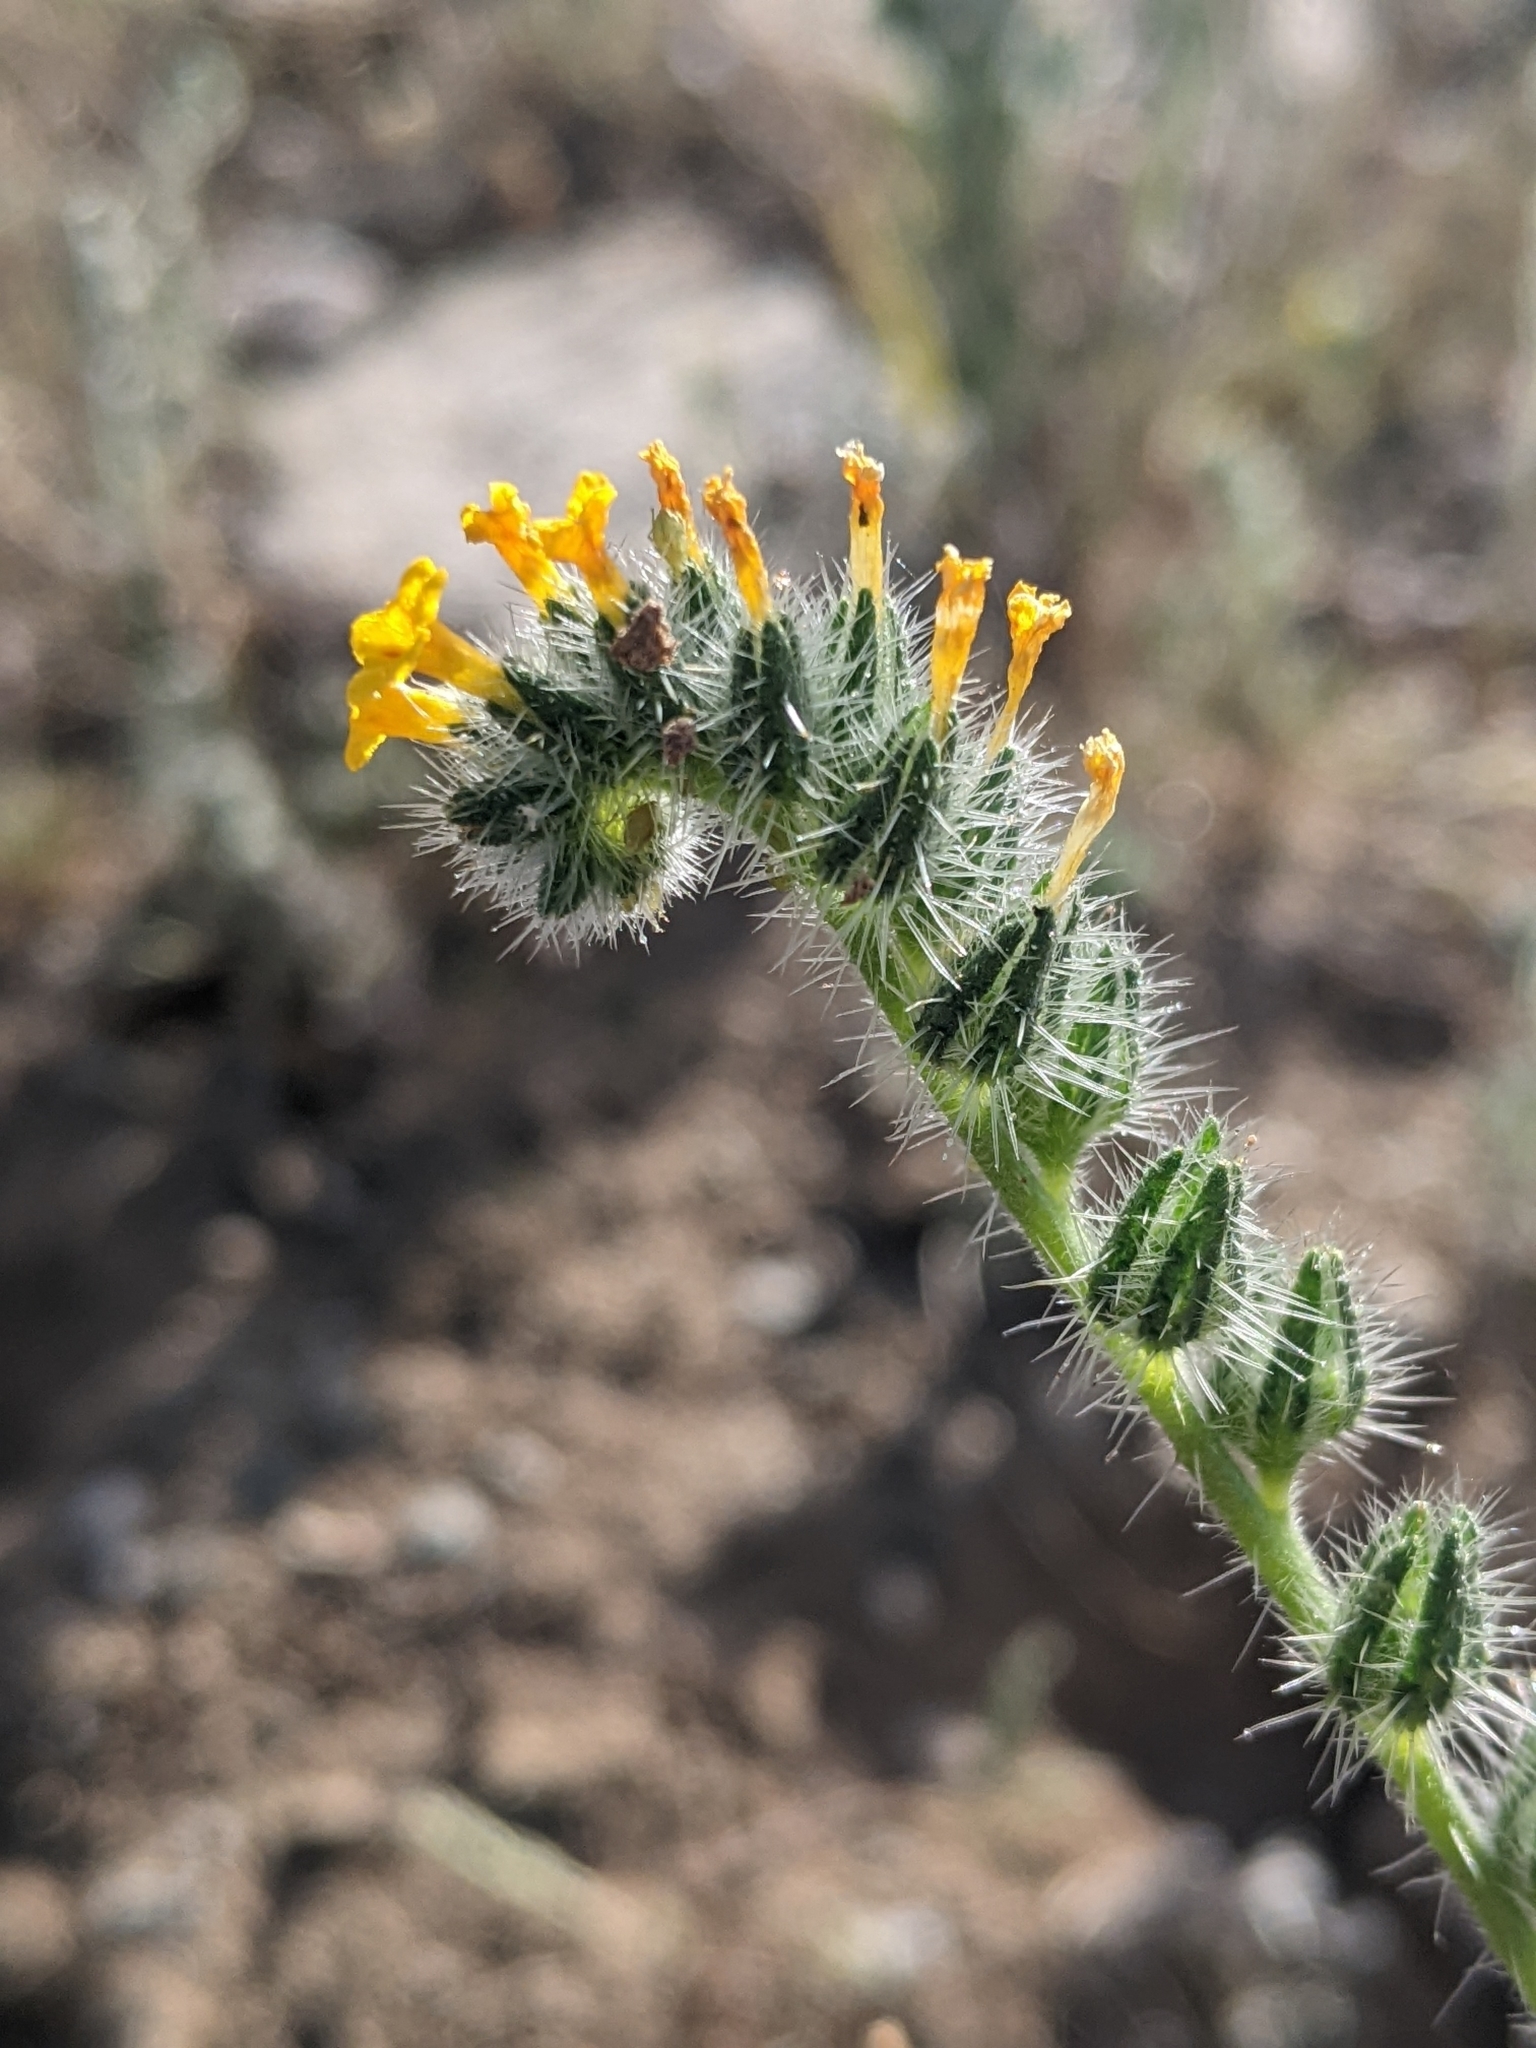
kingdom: Plantae
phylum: Tracheophyta
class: Magnoliopsida
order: Boraginales
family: Boraginaceae
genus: Amsinckia
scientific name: Amsinckia menziesii
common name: Menzies' fiddleneck
